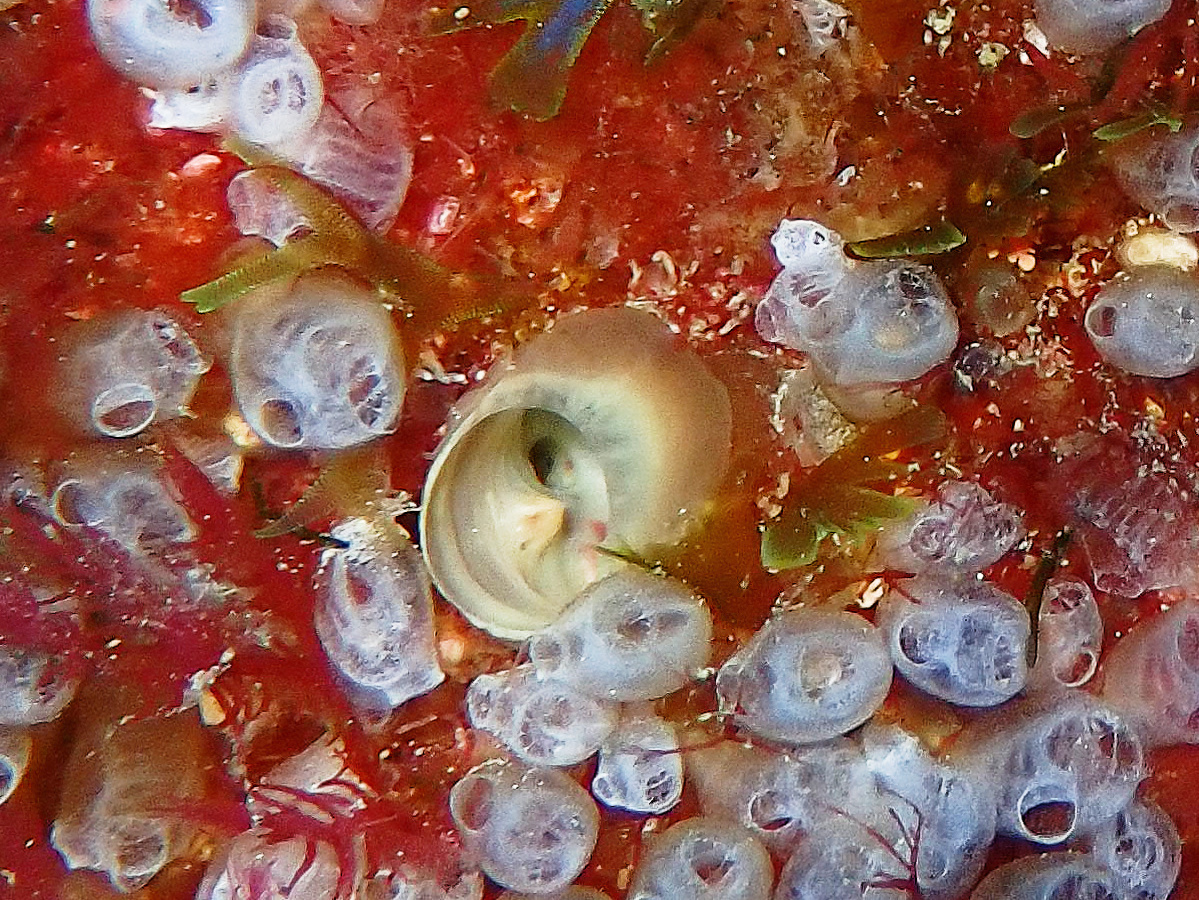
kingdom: Animalia
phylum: Porifera
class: Demospongiae
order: Clionaida
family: Clionaidae
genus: Cliona
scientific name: Cliona viridis
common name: Green boring sponge
